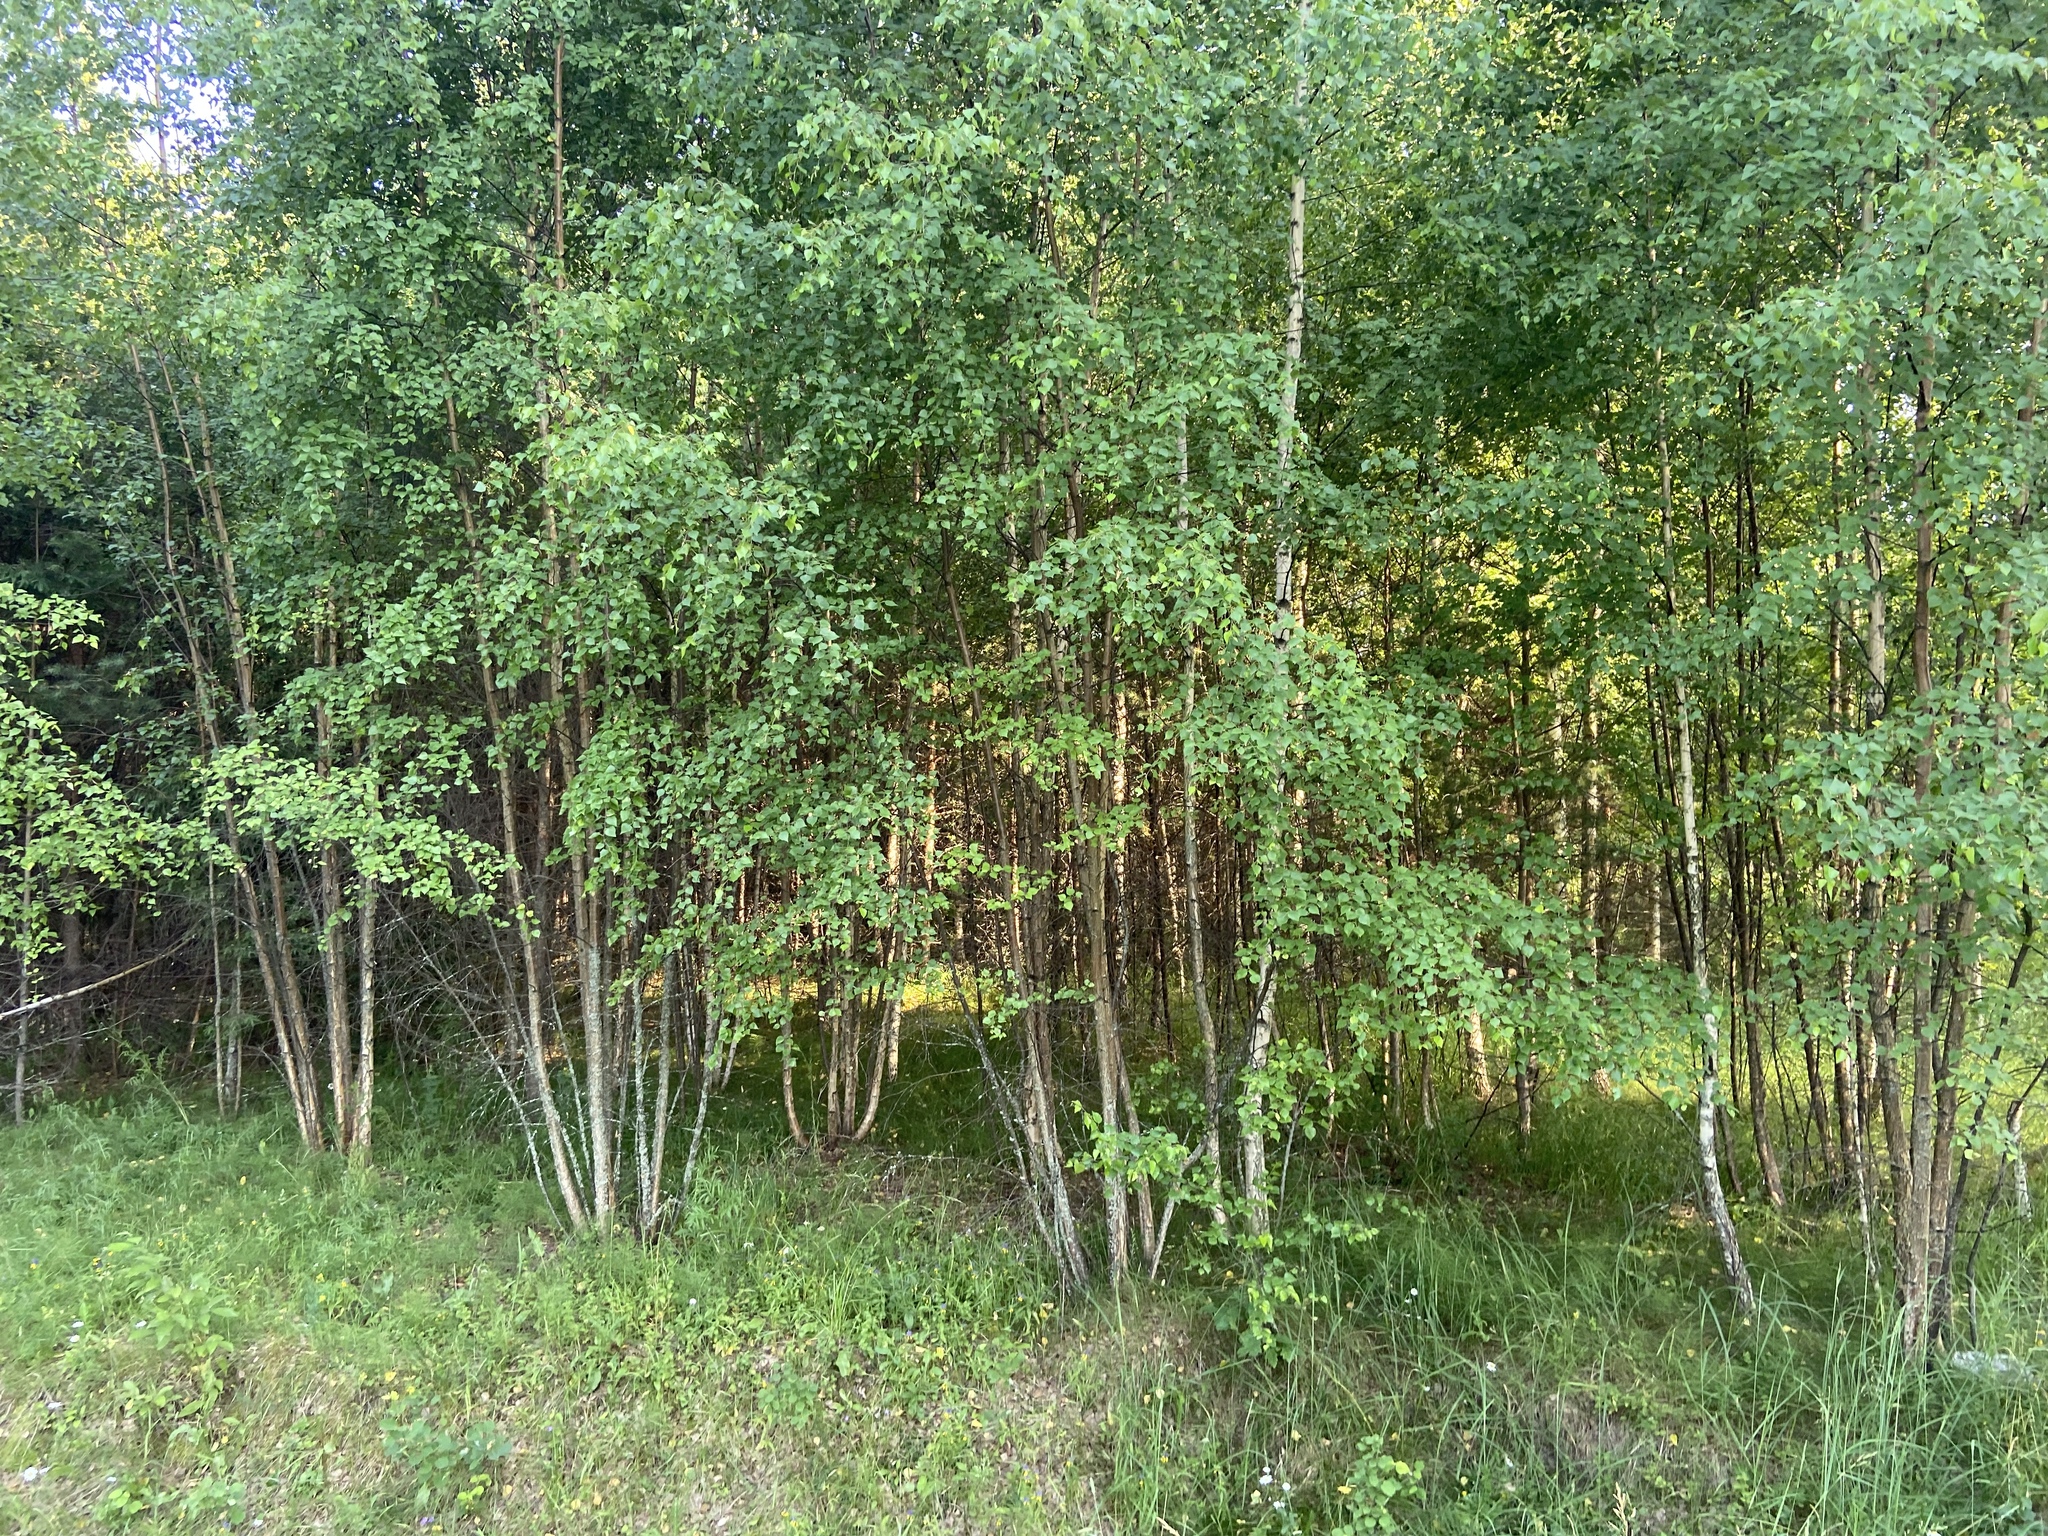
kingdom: Plantae
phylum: Tracheophyta
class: Magnoliopsida
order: Fagales
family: Betulaceae
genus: Betula
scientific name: Betula pendula
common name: Silver birch
